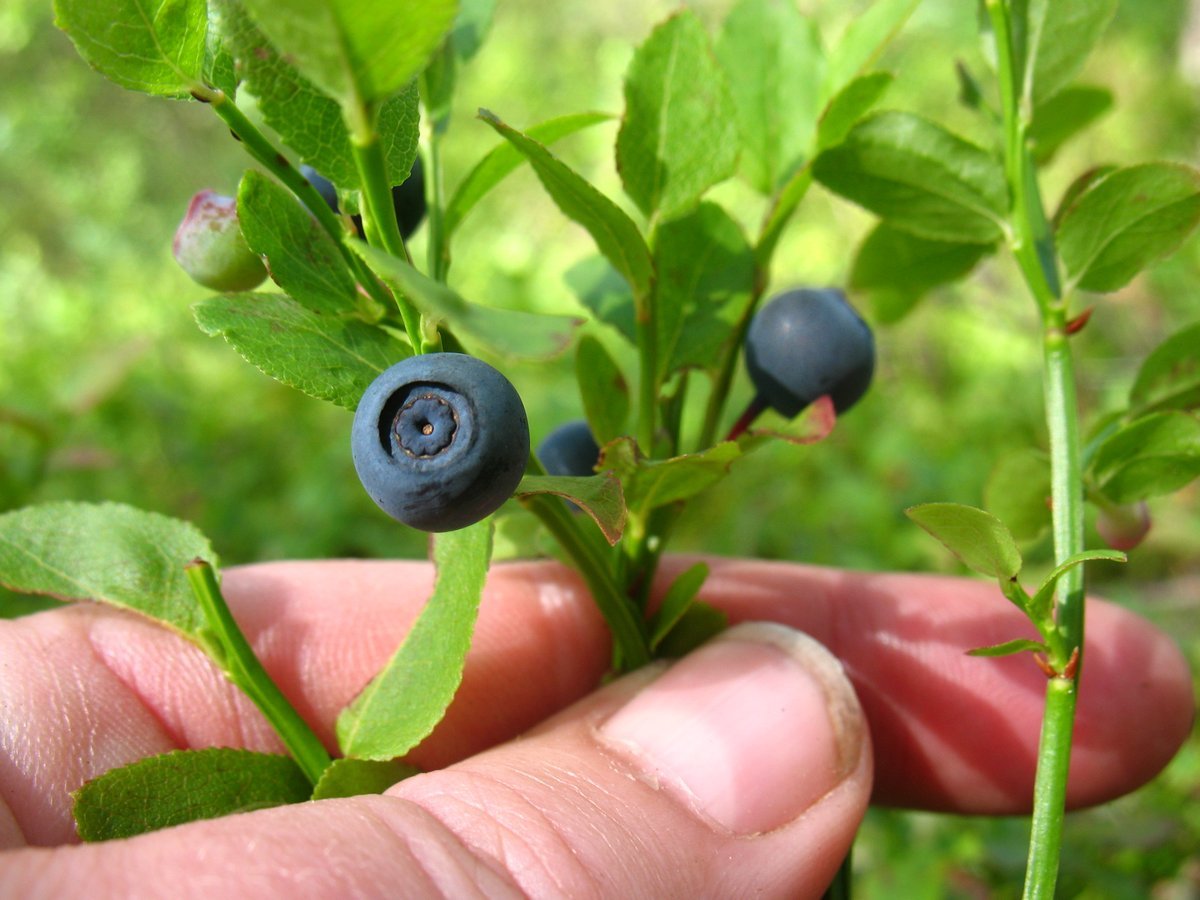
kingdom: Plantae
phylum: Tracheophyta
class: Magnoliopsida
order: Ericales
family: Ericaceae
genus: Vaccinium
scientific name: Vaccinium myrtillus
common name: Bilberry
